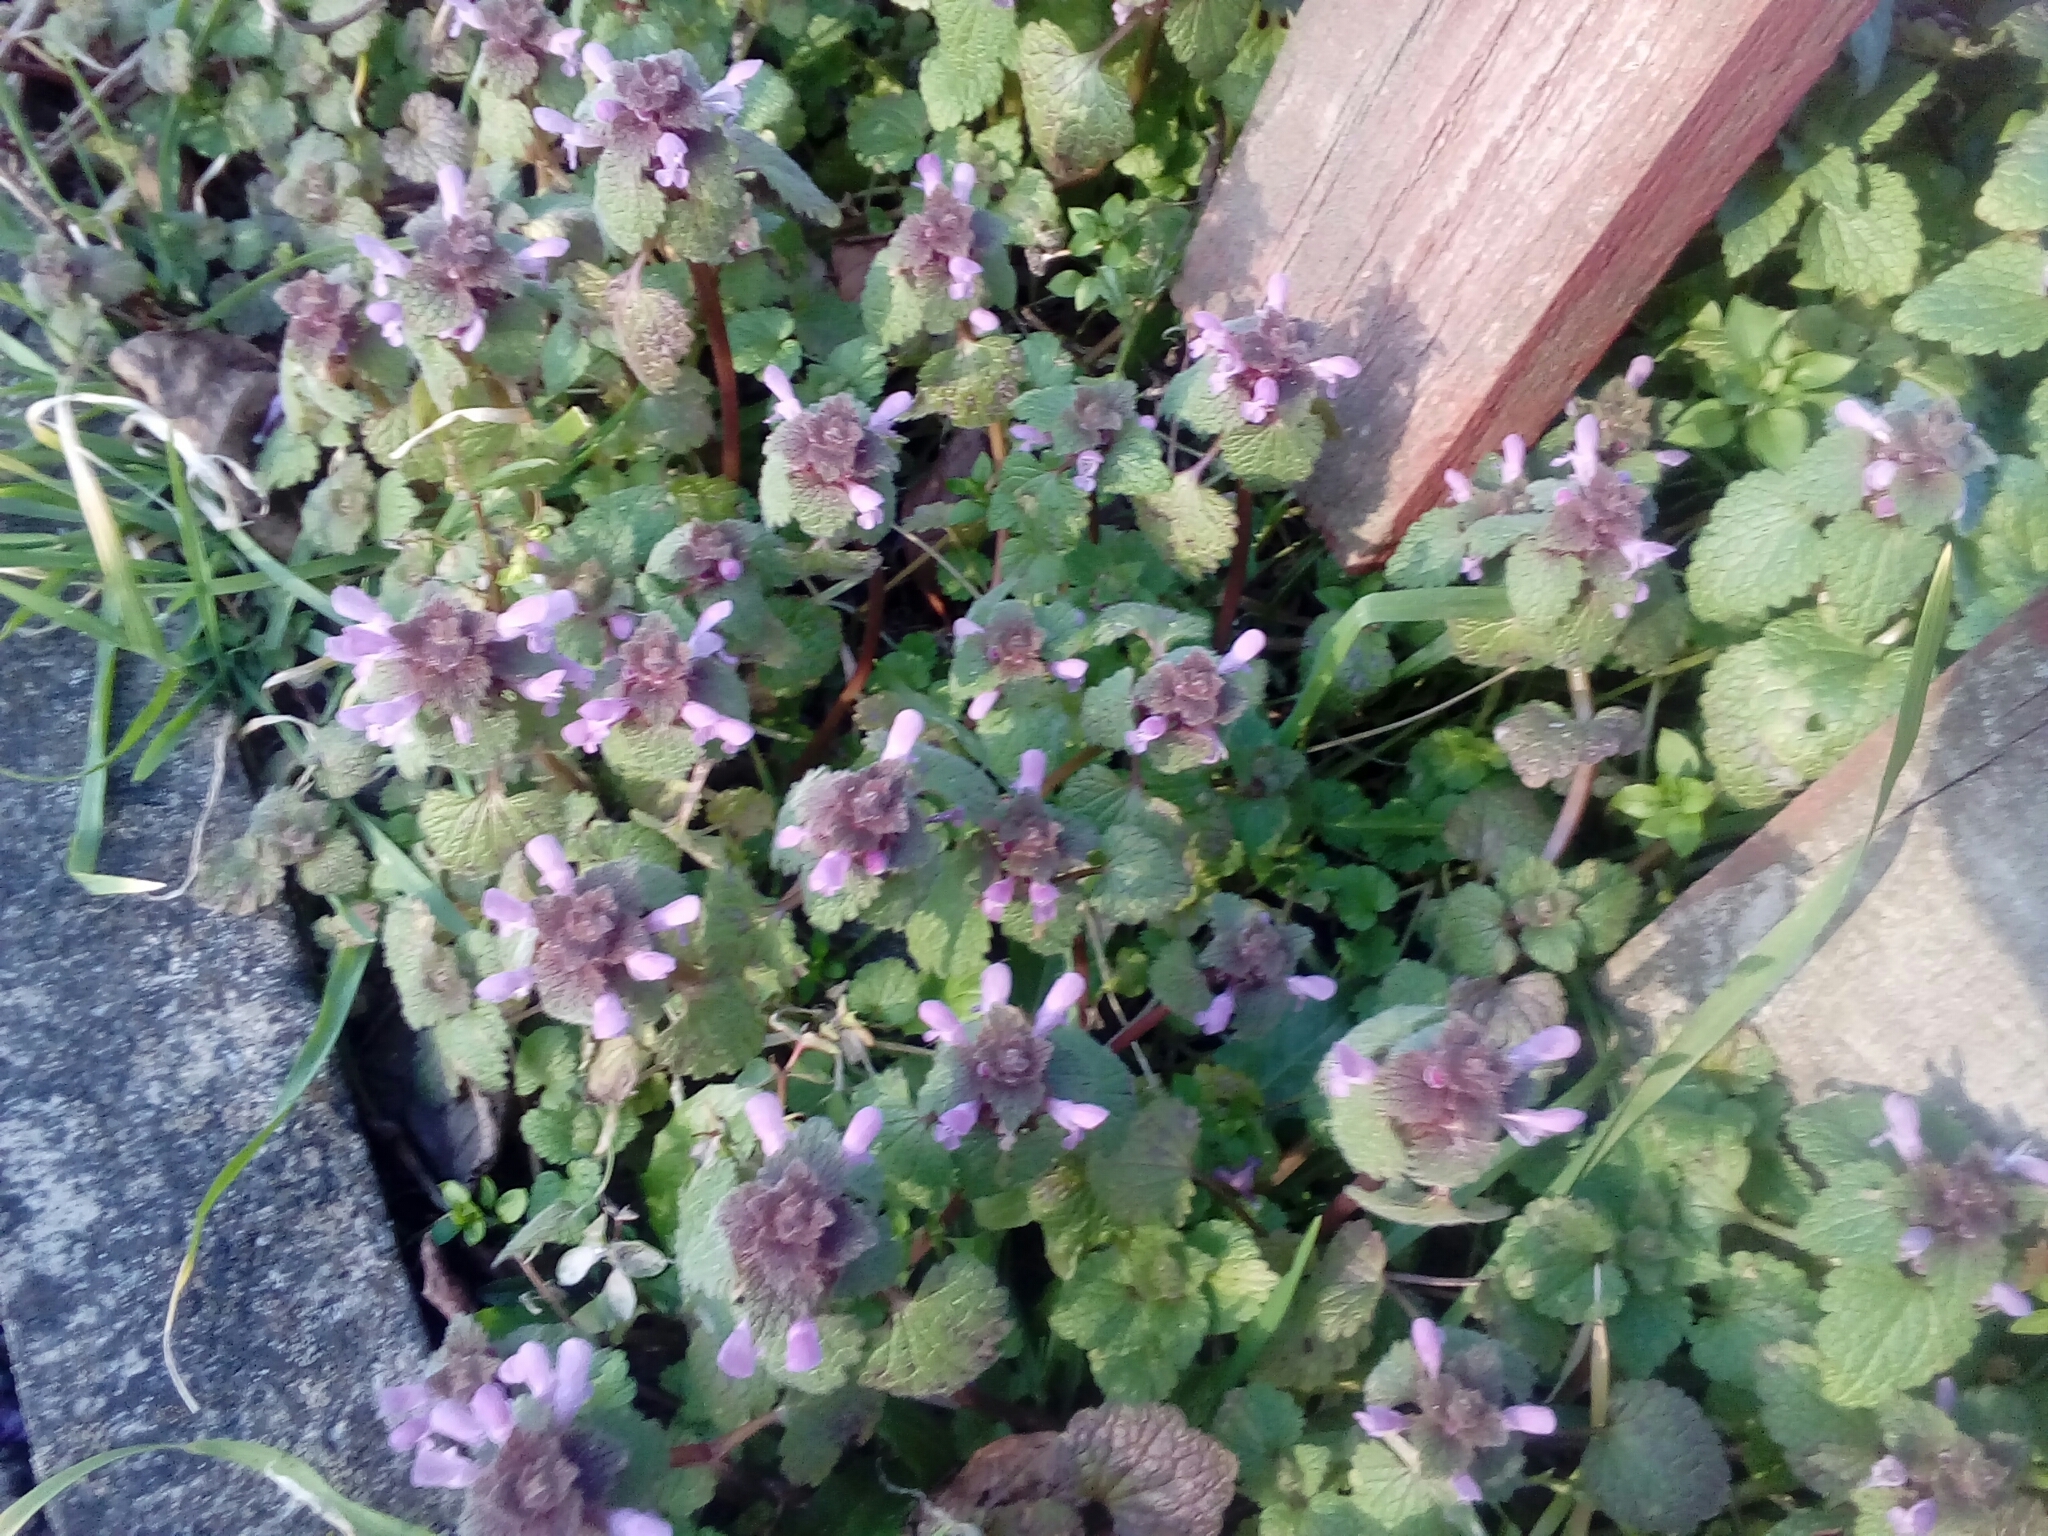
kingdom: Plantae
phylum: Tracheophyta
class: Magnoliopsida
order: Lamiales
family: Lamiaceae
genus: Lamium
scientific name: Lamium purpureum
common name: Red dead-nettle
